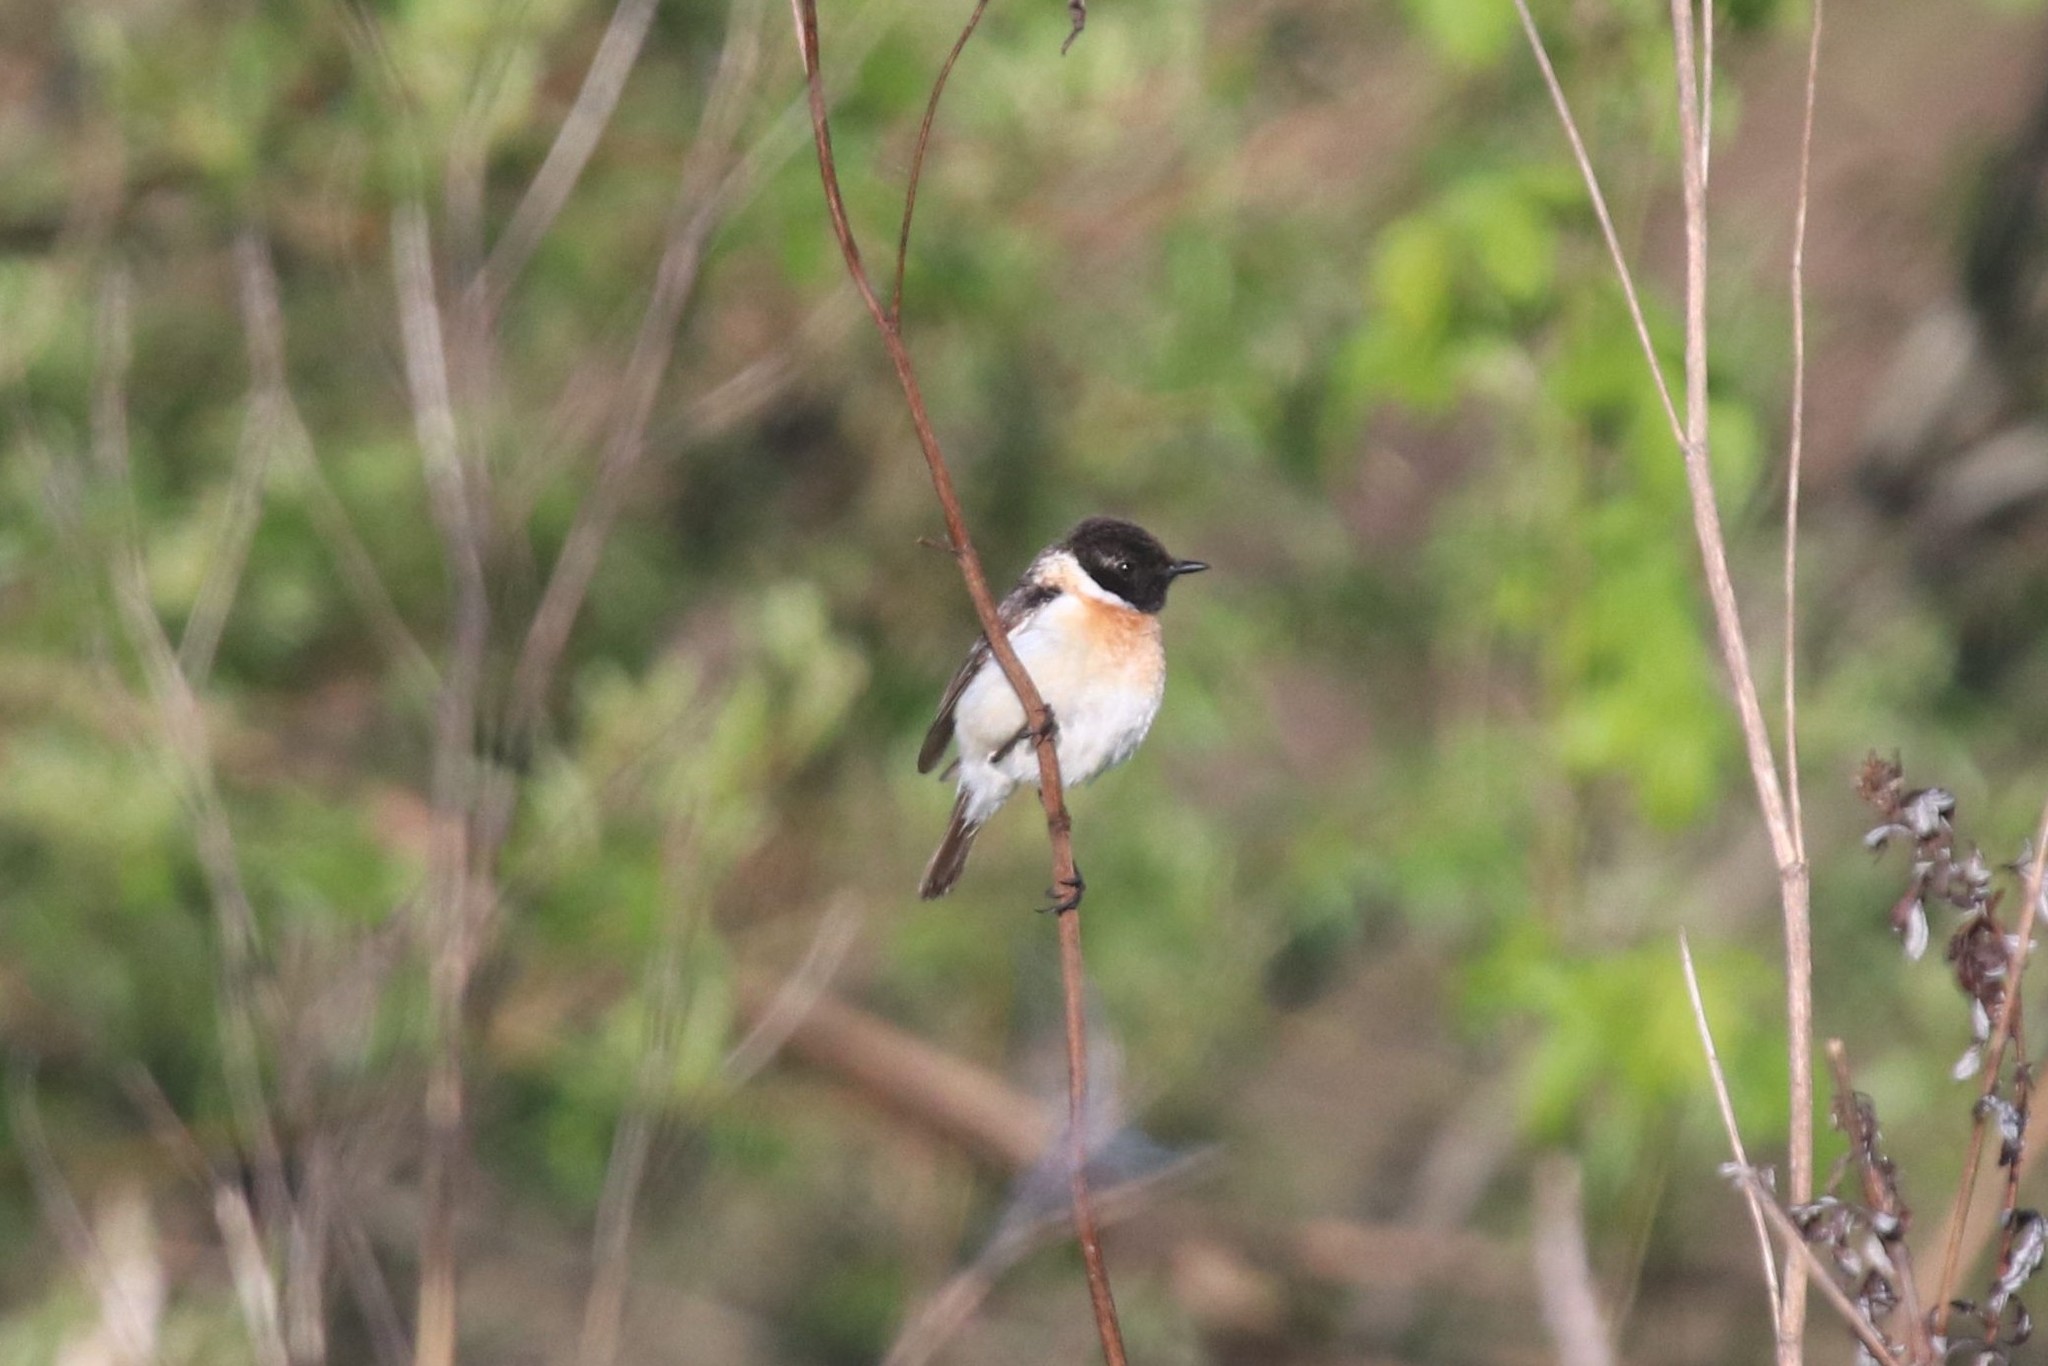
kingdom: Animalia
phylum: Chordata
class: Aves
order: Passeriformes
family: Muscicapidae
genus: Saxicola
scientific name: Saxicola maurus
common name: Siberian stonechat
